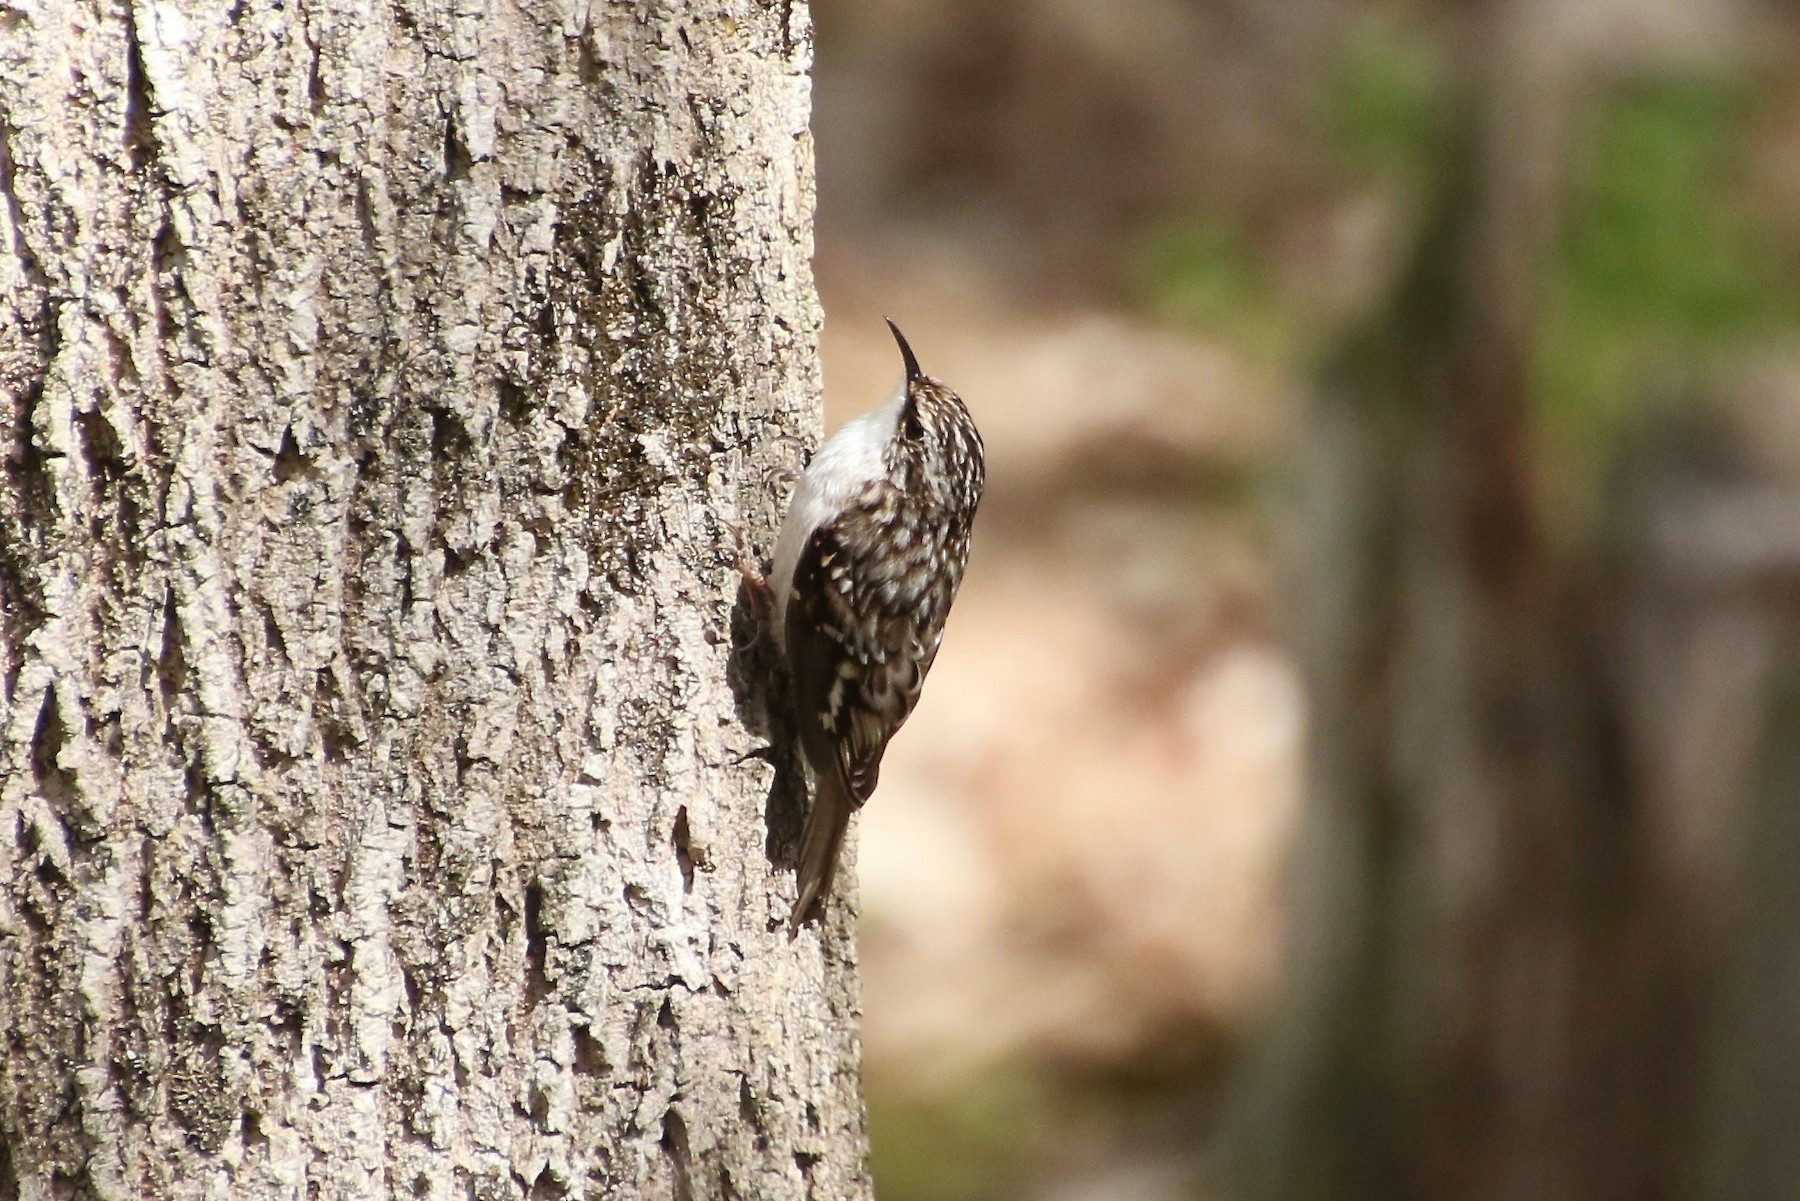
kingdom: Animalia
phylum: Chordata
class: Aves
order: Passeriformes
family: Certhiidae
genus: Certhia
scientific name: Certhia americana
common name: Brown creeper
